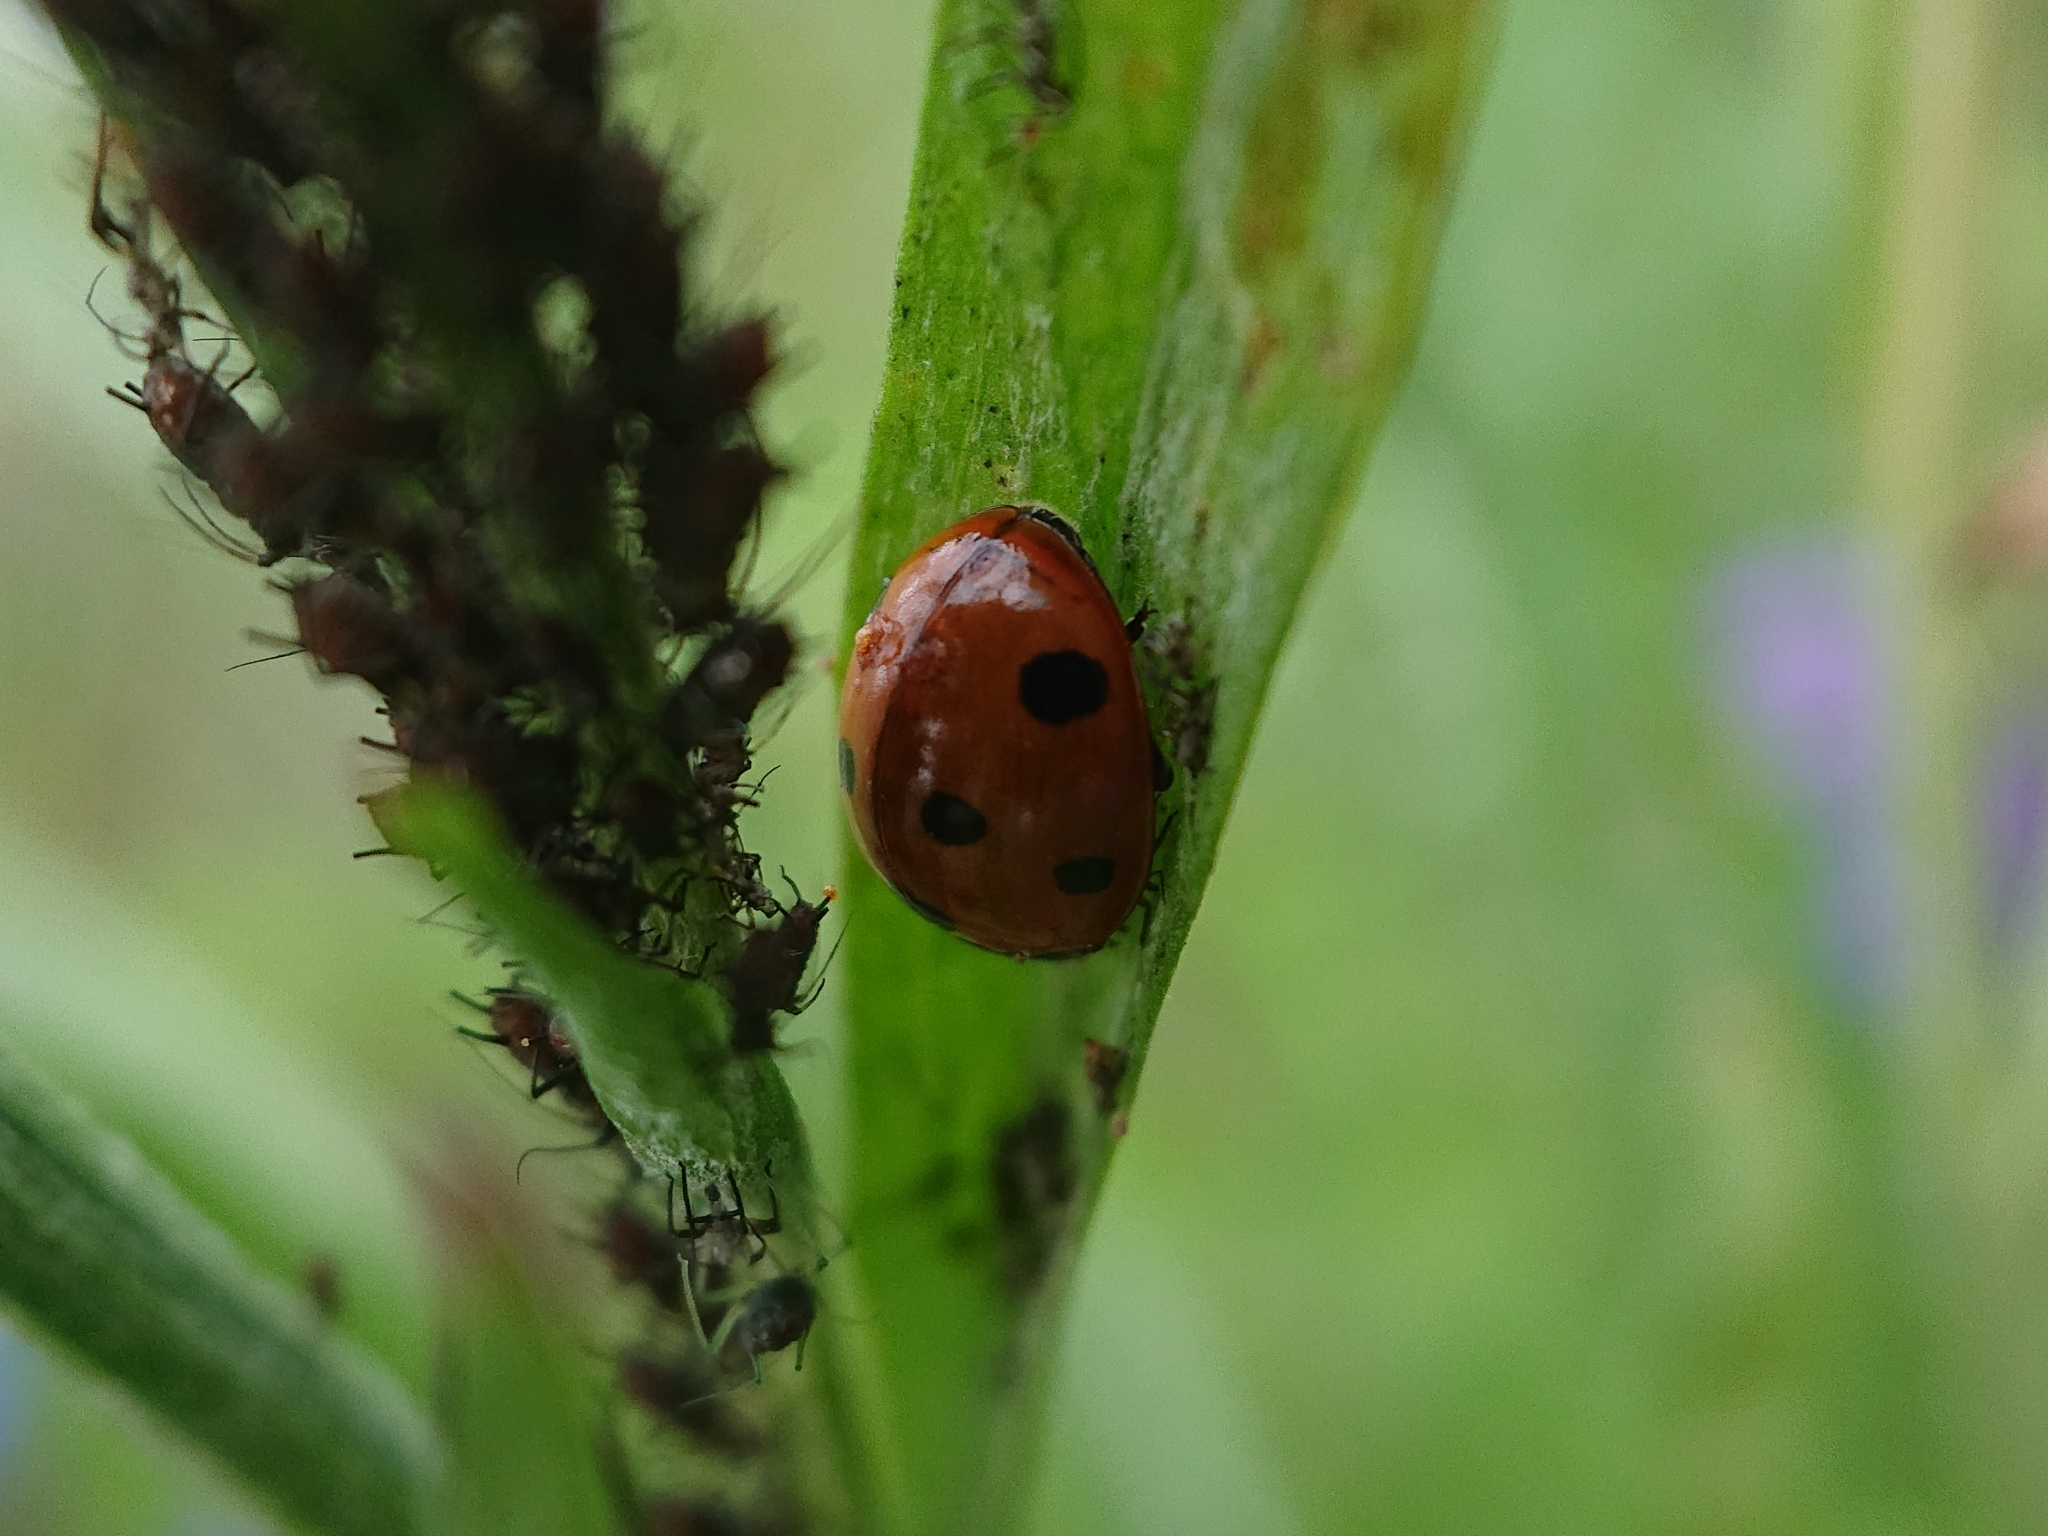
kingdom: Animalia
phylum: Arthropoda
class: Insecta
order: Coleoptera
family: Coccinellidae
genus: Coccinella
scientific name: Coccinella septempunctata
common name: Sevenspotted lady beetle
